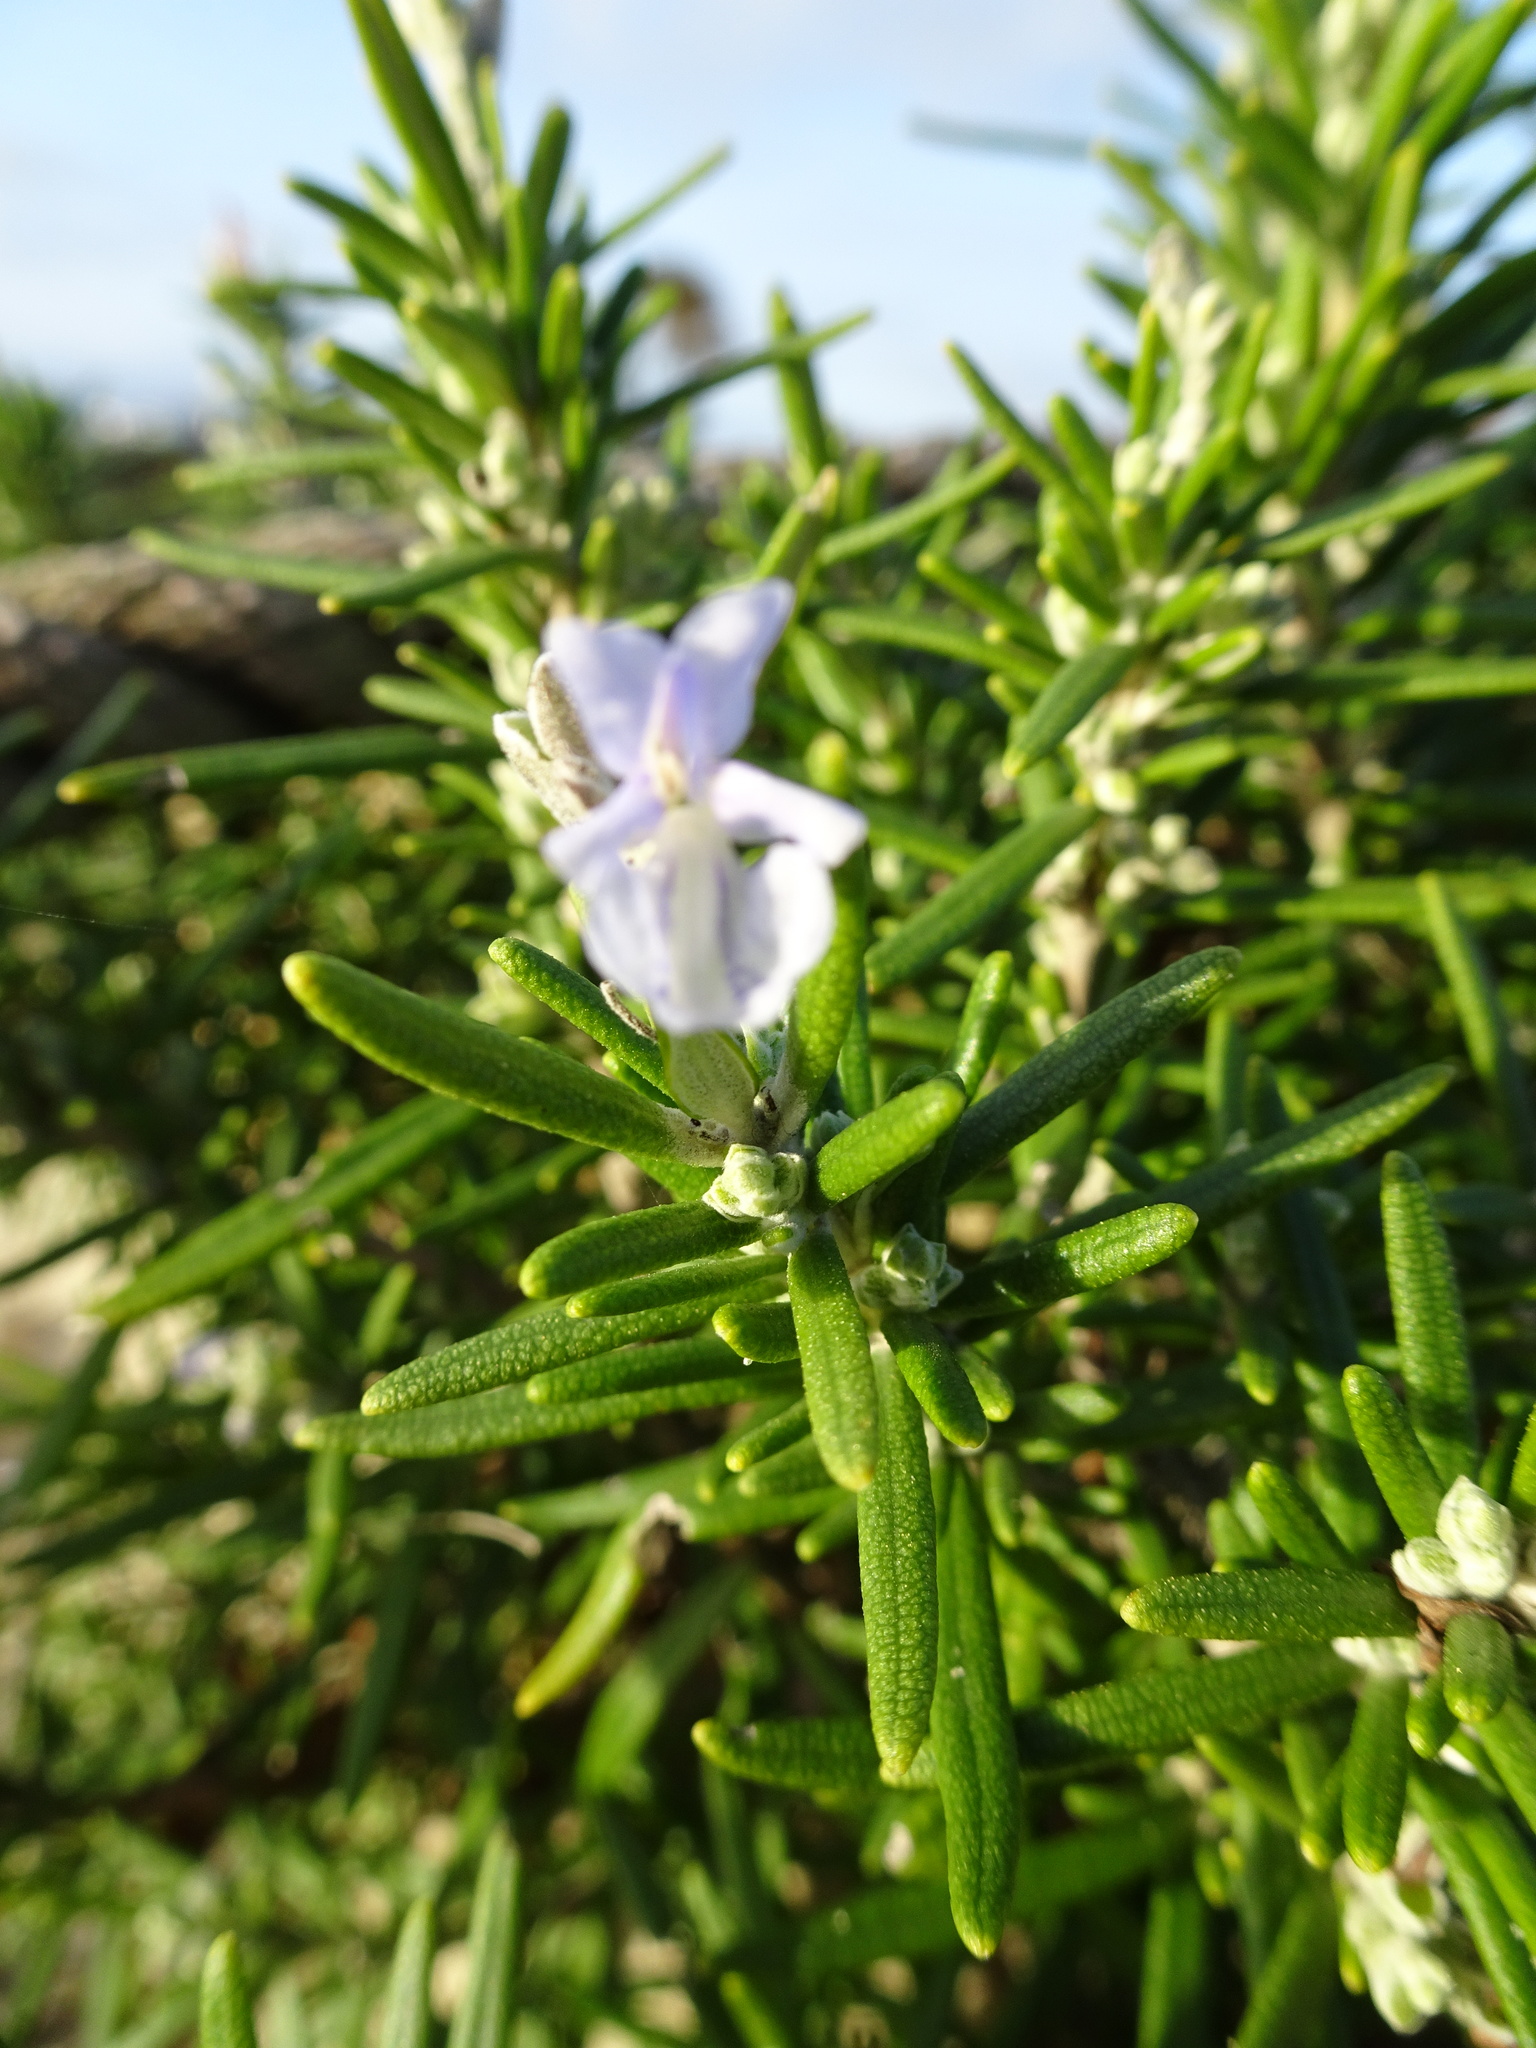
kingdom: Plantae
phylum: Tracheophyta
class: Magnoliopsida
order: Lamiales
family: Lamiaceae
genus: Salvia
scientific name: Salvia rosmarinus
